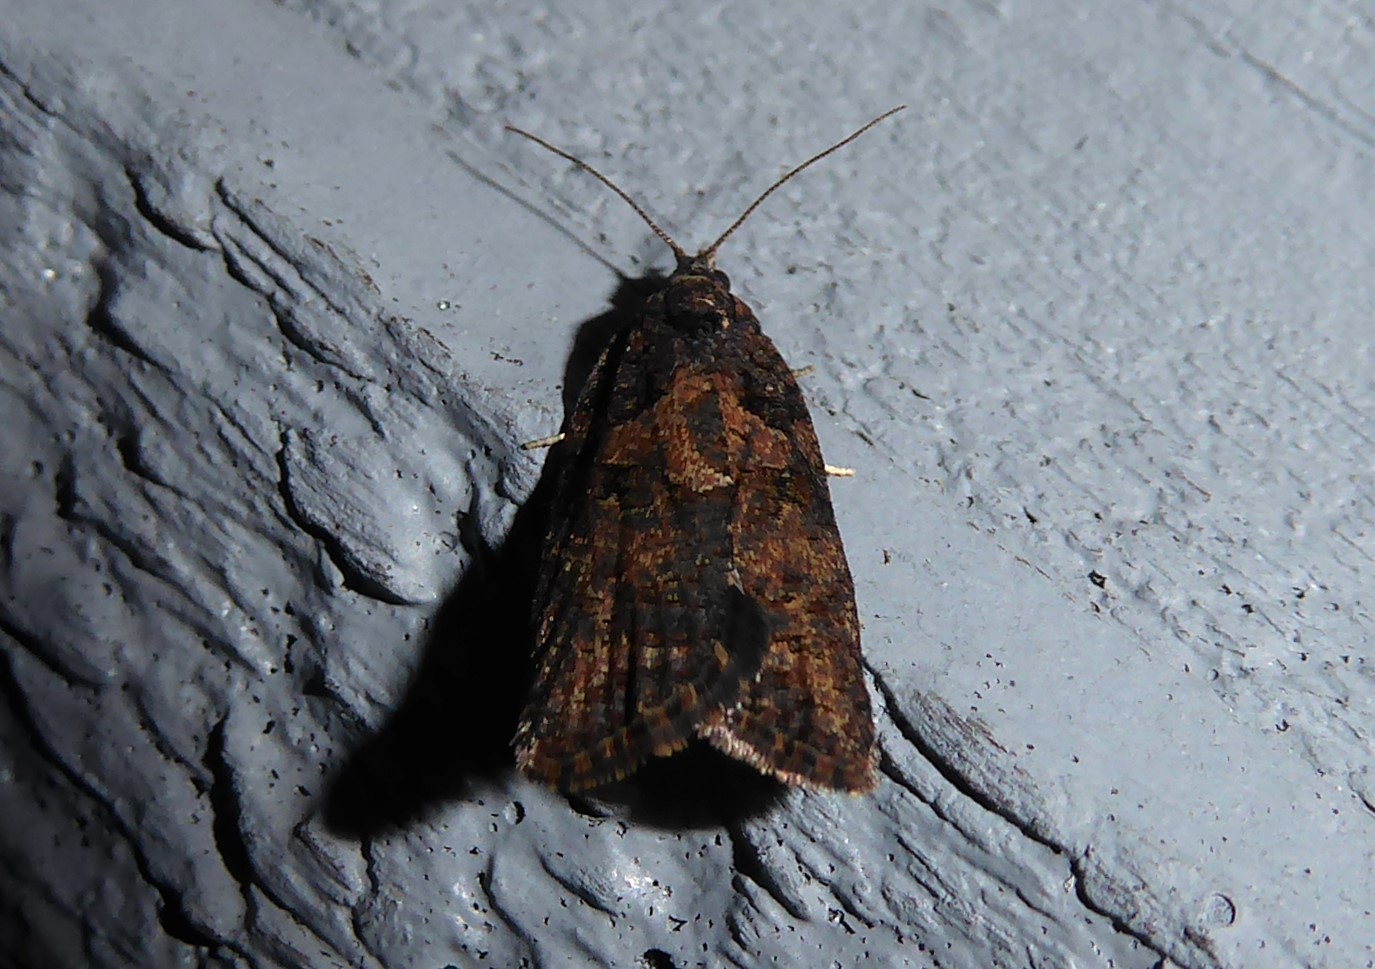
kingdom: Animalia
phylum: Arthropoda
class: Insecta
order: Lepidoptera
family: Tortricidae
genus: Capua
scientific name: Capua intractana
